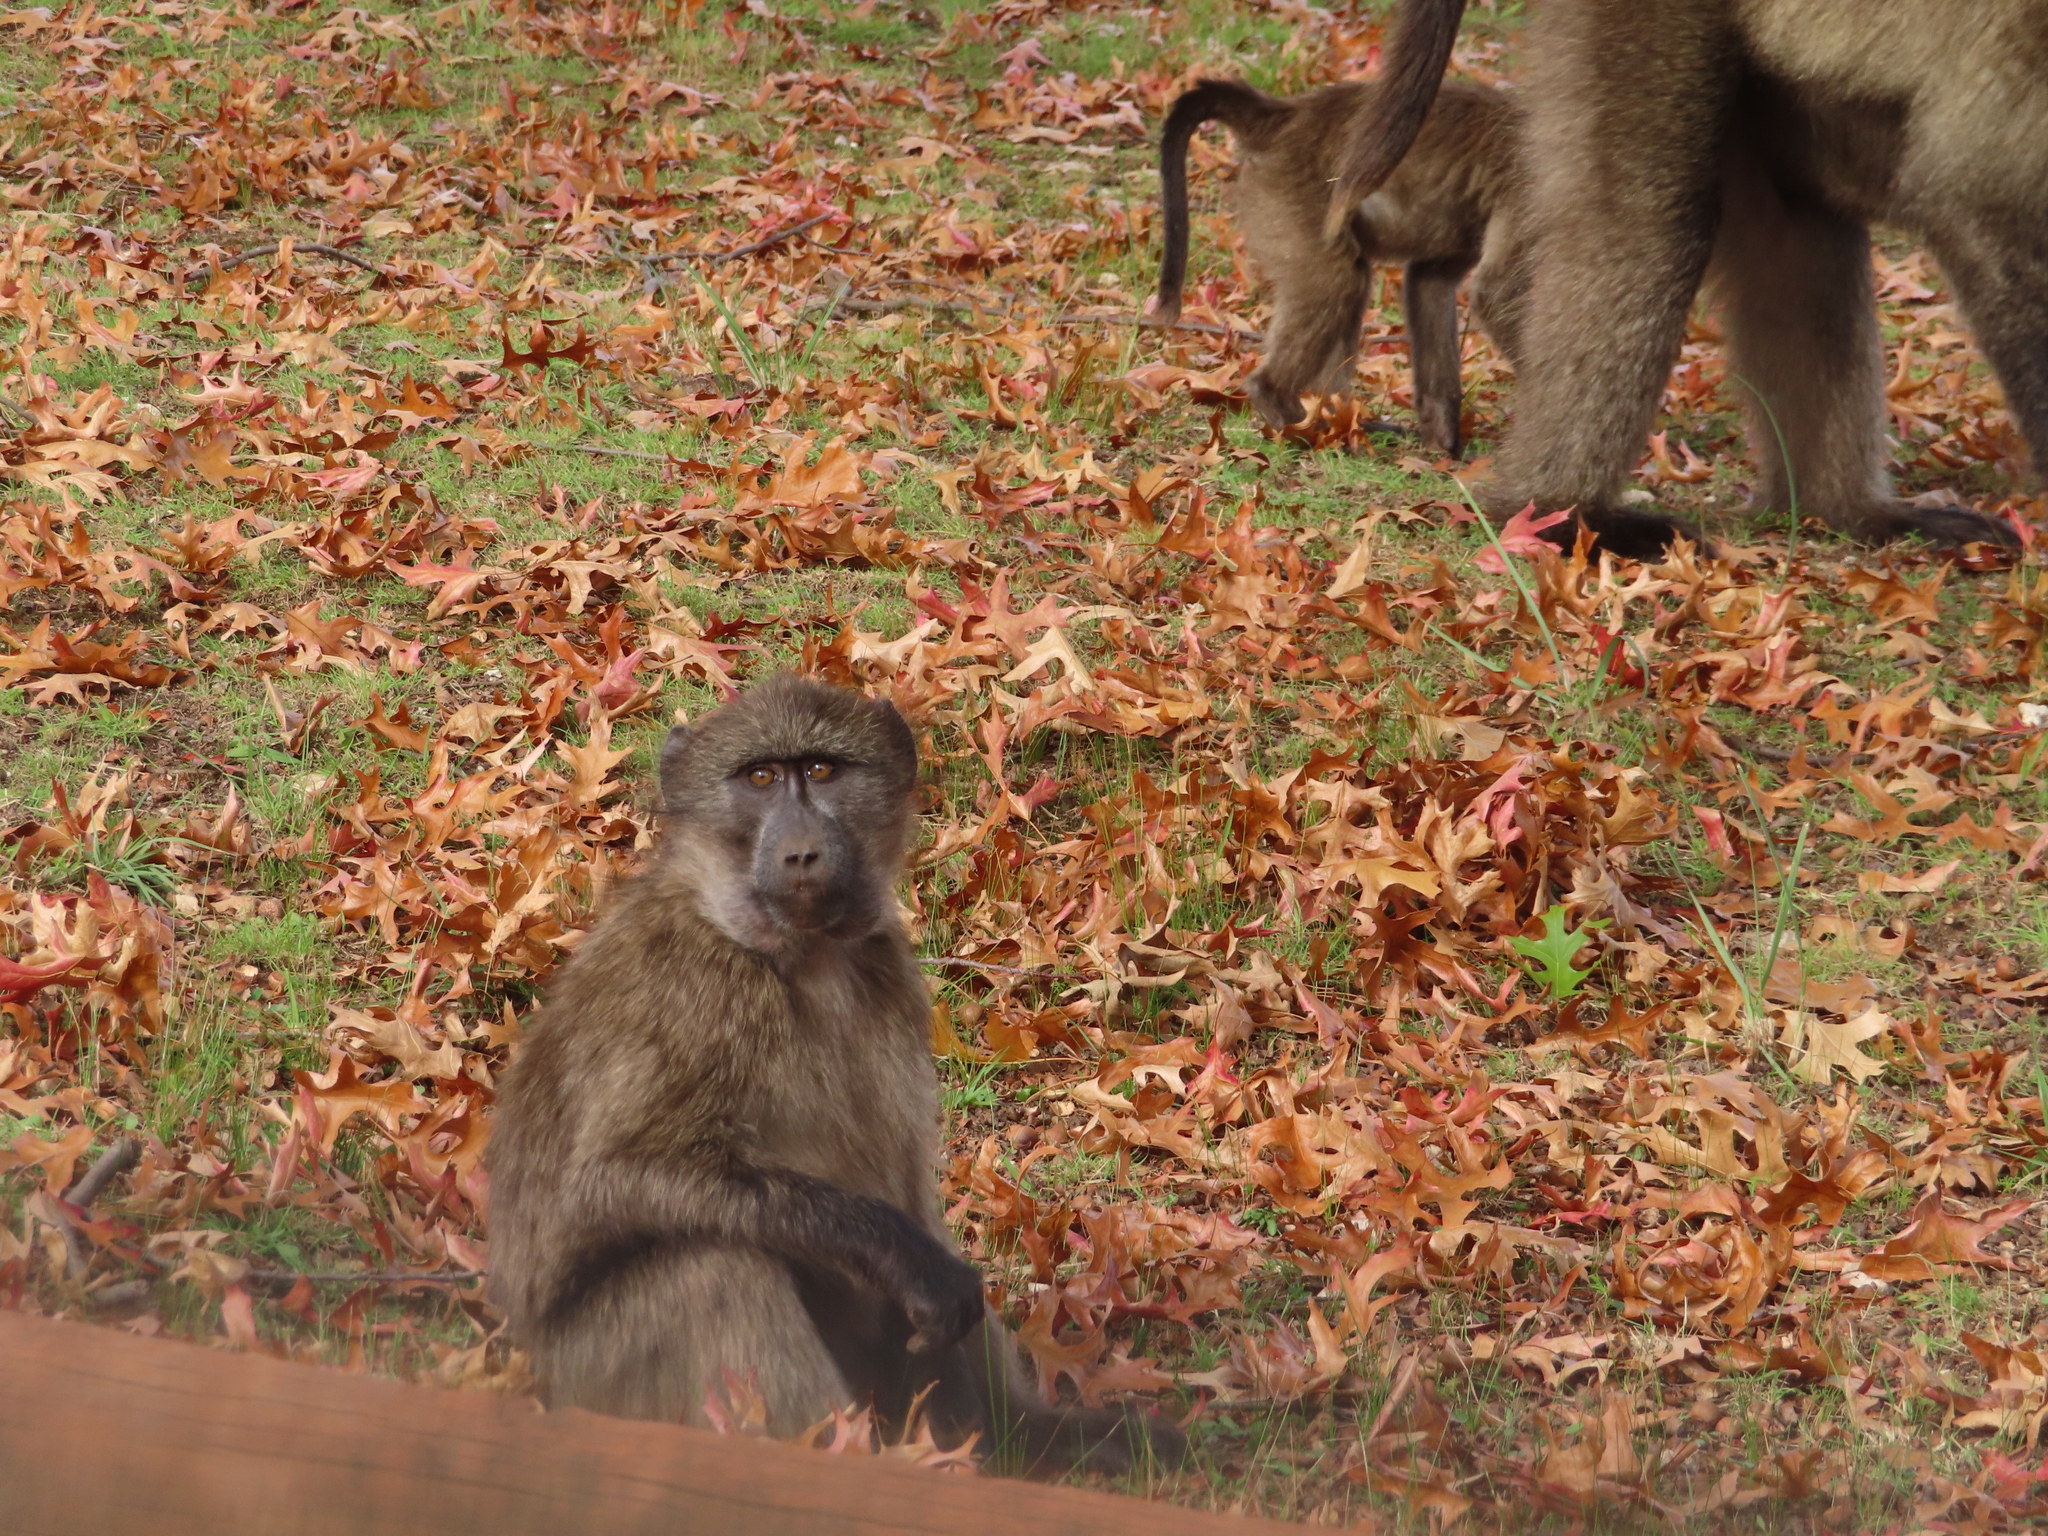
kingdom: Animalia
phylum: Chordata
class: Mammalia
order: Primates
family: Cercopithecidae
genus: Papio
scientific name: Papio ursinus
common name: Chacma baboon
